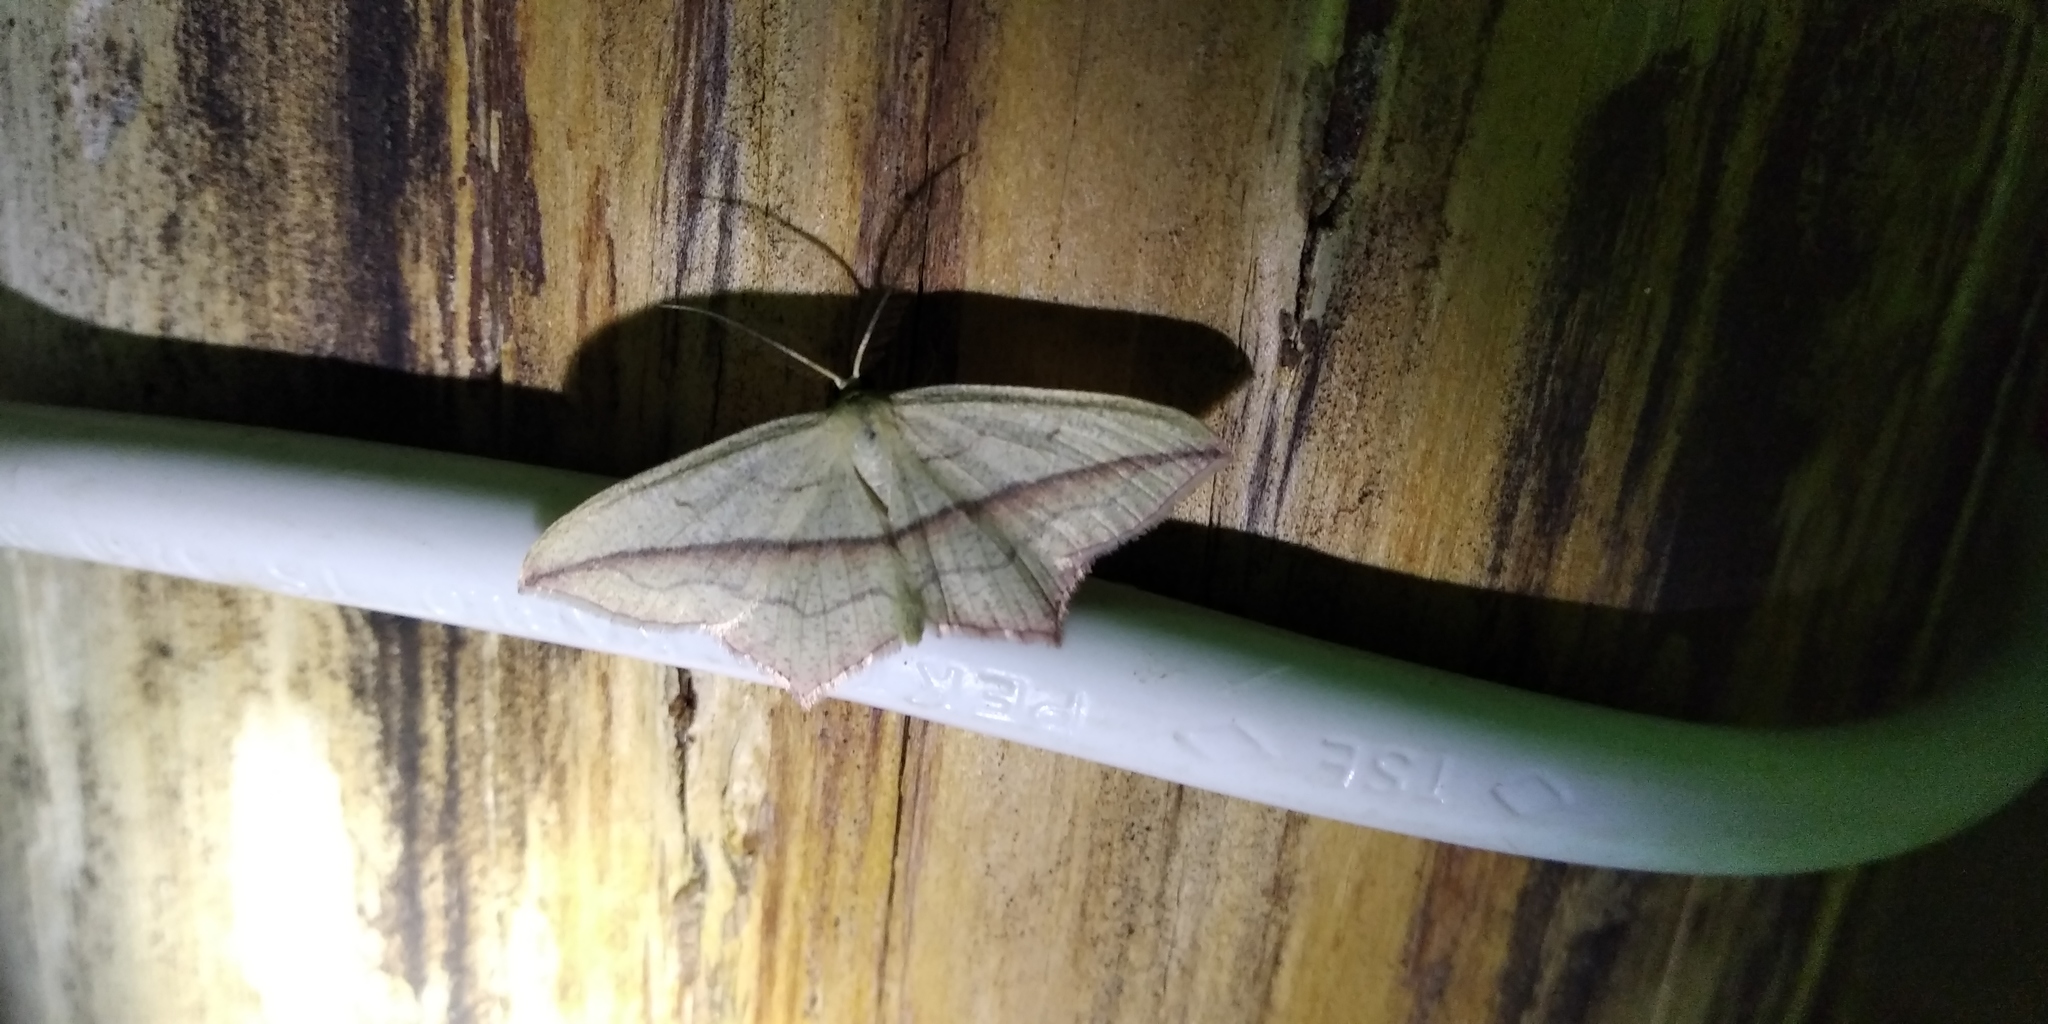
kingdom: Animalia
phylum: Arthropoda
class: Insecta
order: Lepidoptera
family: Geometridae
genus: Timandra
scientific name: Timandra comae
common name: Blood-vein
